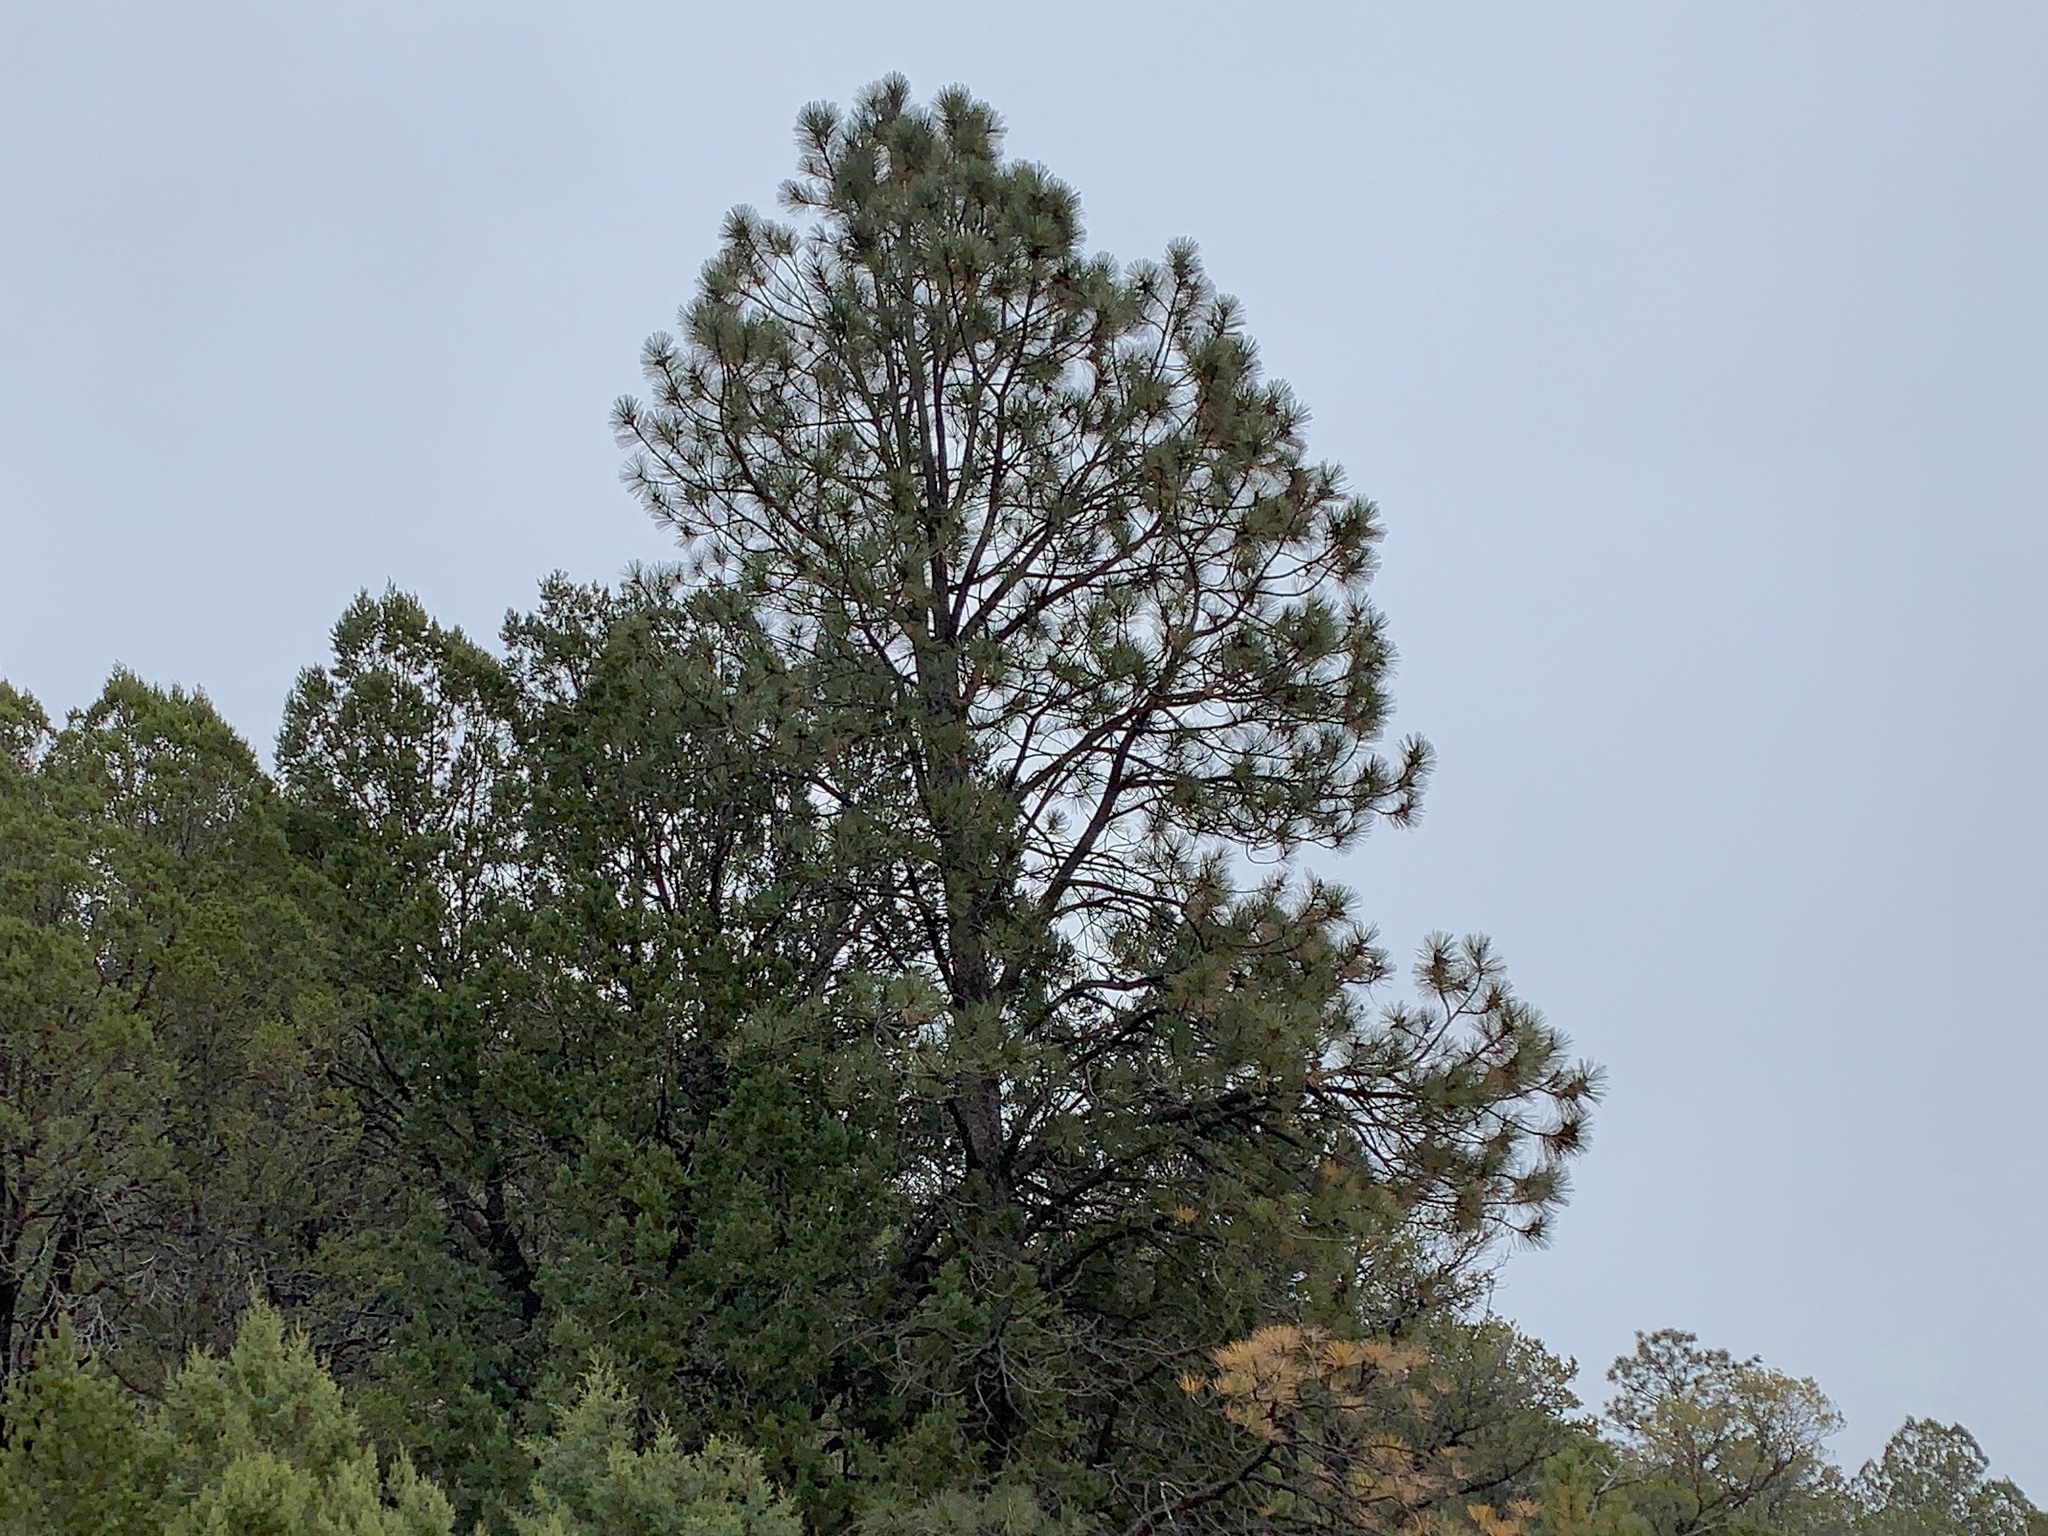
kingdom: Plantae
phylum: Tracheophyta
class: Pinopsida
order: Pinales
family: Pinaceae
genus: Pinus
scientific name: Pinus ponderosa
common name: Western yellow-pine
